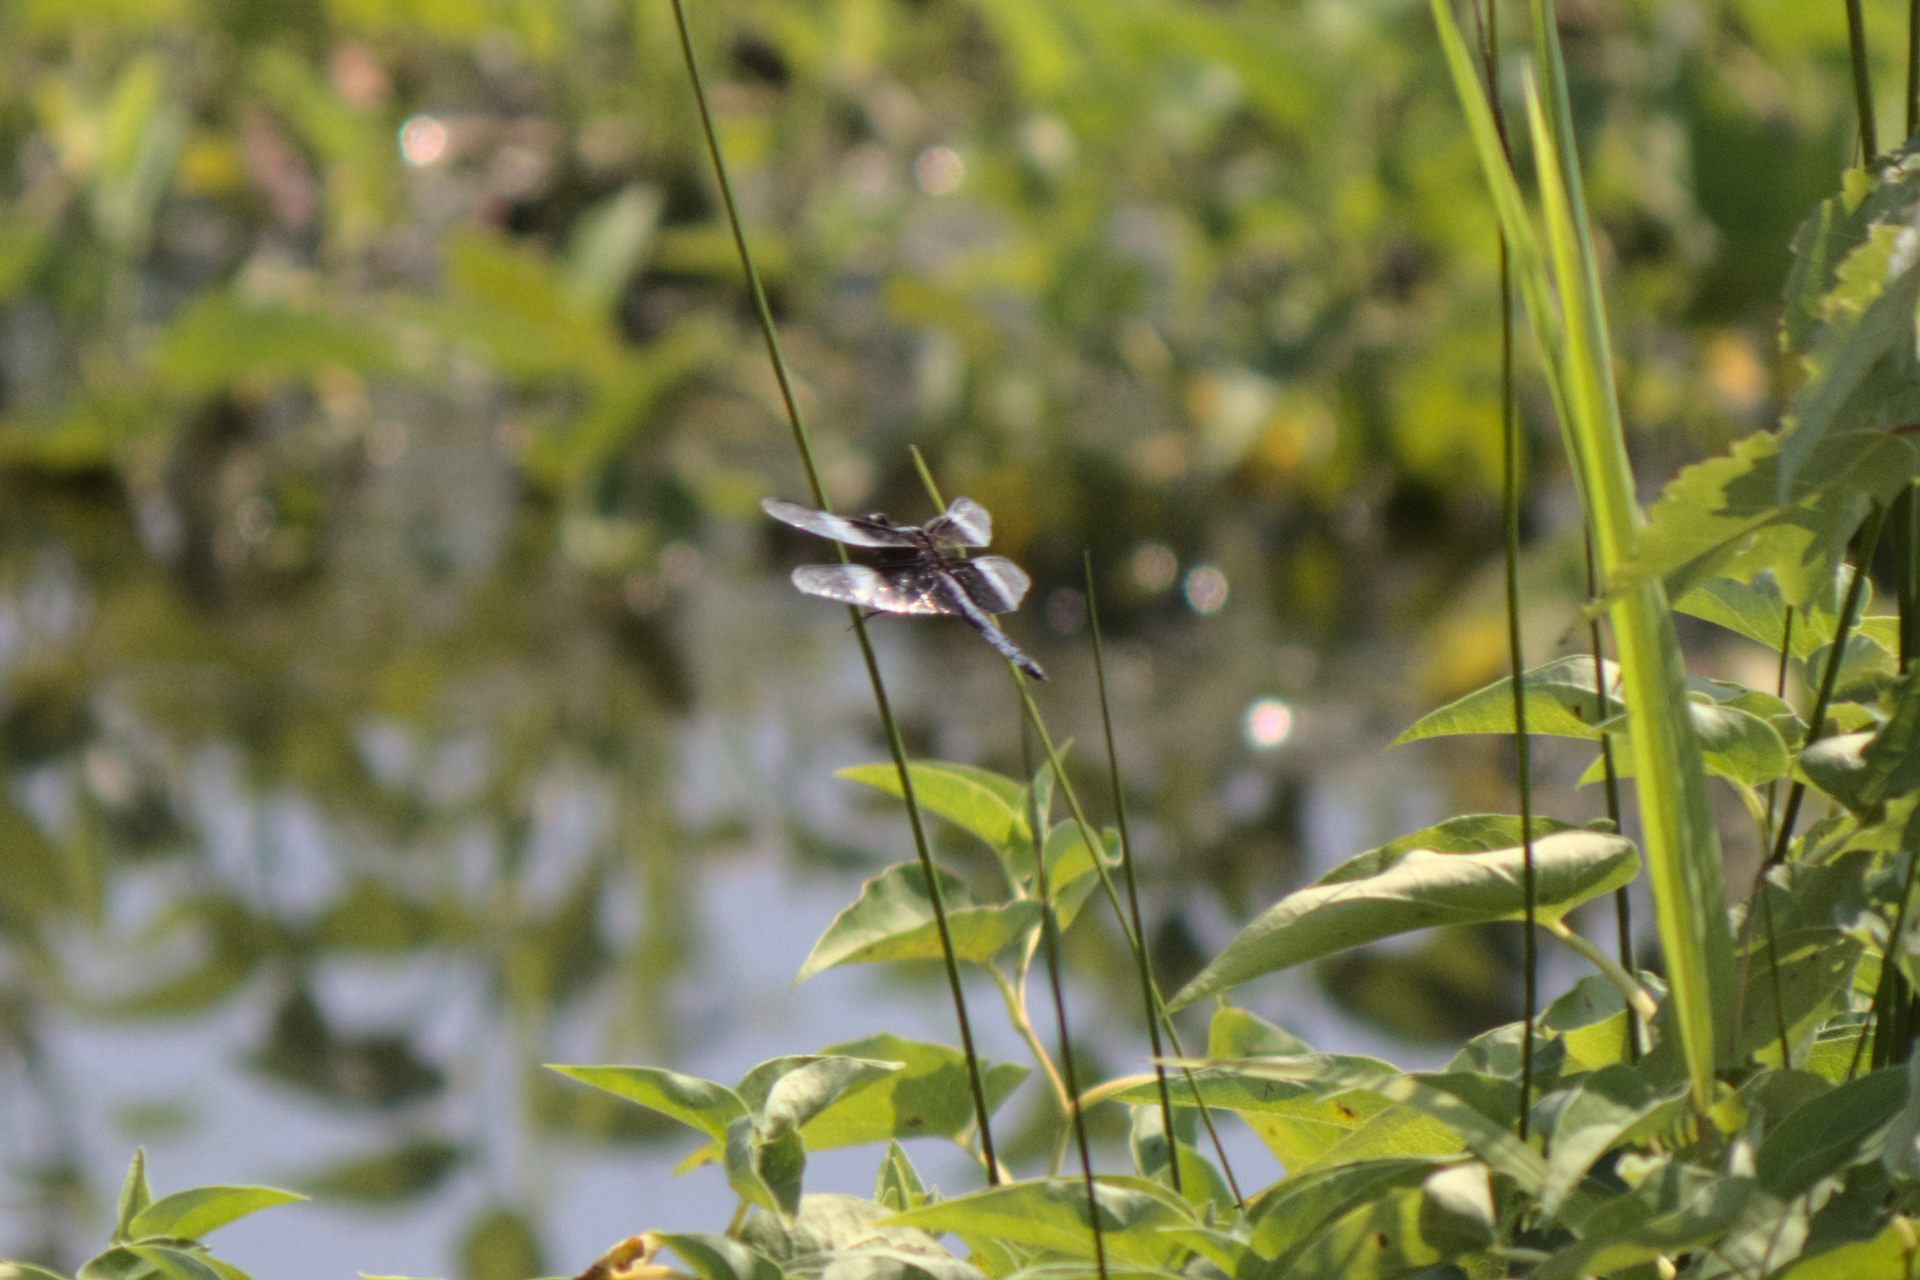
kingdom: Animalia
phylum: Arthropoda
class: Insecta
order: Odonata
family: Libellulidae
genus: Libellula
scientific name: Libellula luctuosa
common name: Widow skimmer
